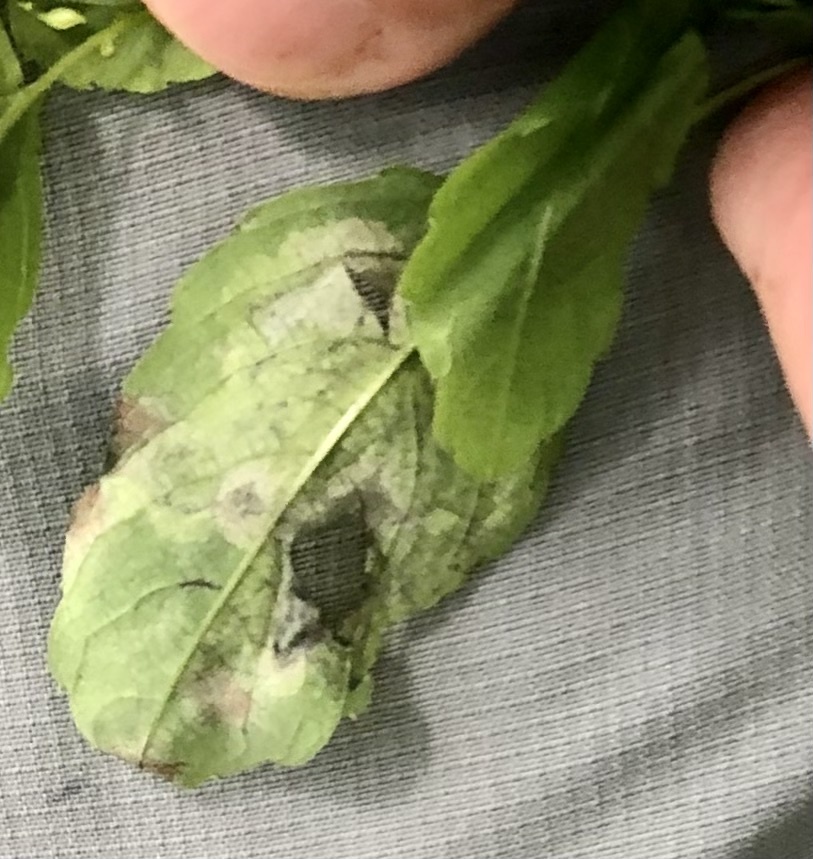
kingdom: Animalia
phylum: Arthropoda
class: Insecta
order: Diptera
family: Agromyzidae
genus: Phytoliriomyza
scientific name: Phytoliriomyza melampyga
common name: Jewelweed leaf-miner fly
